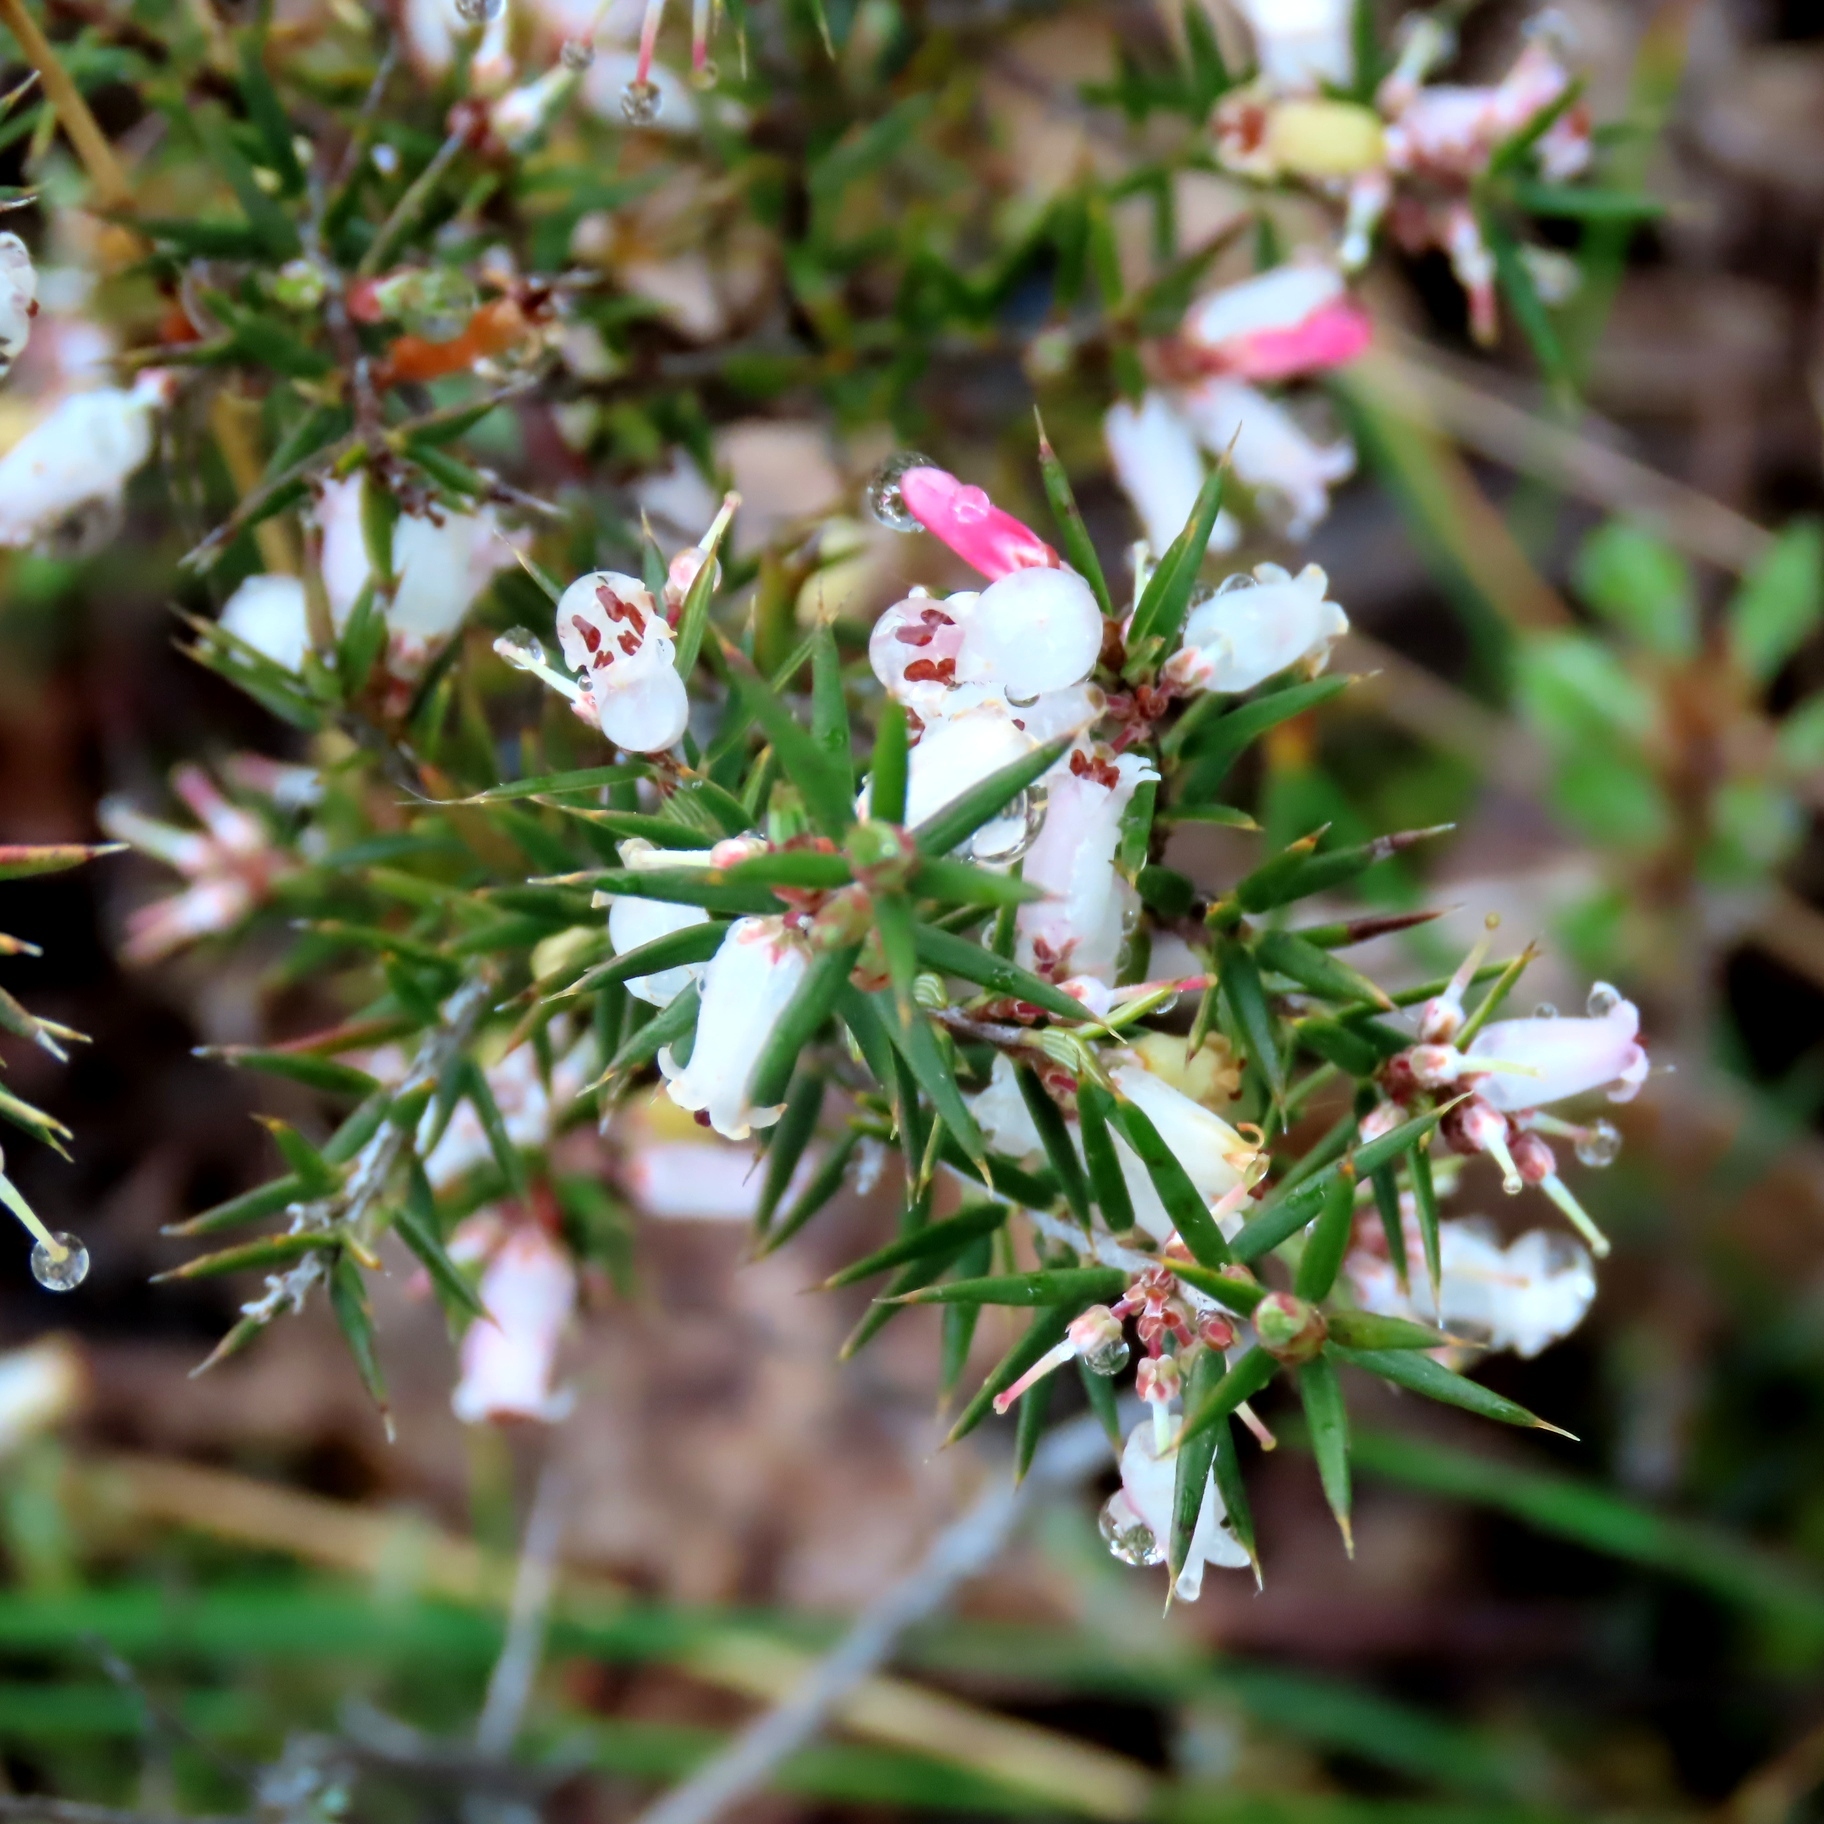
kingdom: Plantae
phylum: Tracheophyta
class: Magnoliopsida
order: Ericales
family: Ericaceae
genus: Lissanthe
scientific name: Lissanthe strigosa
